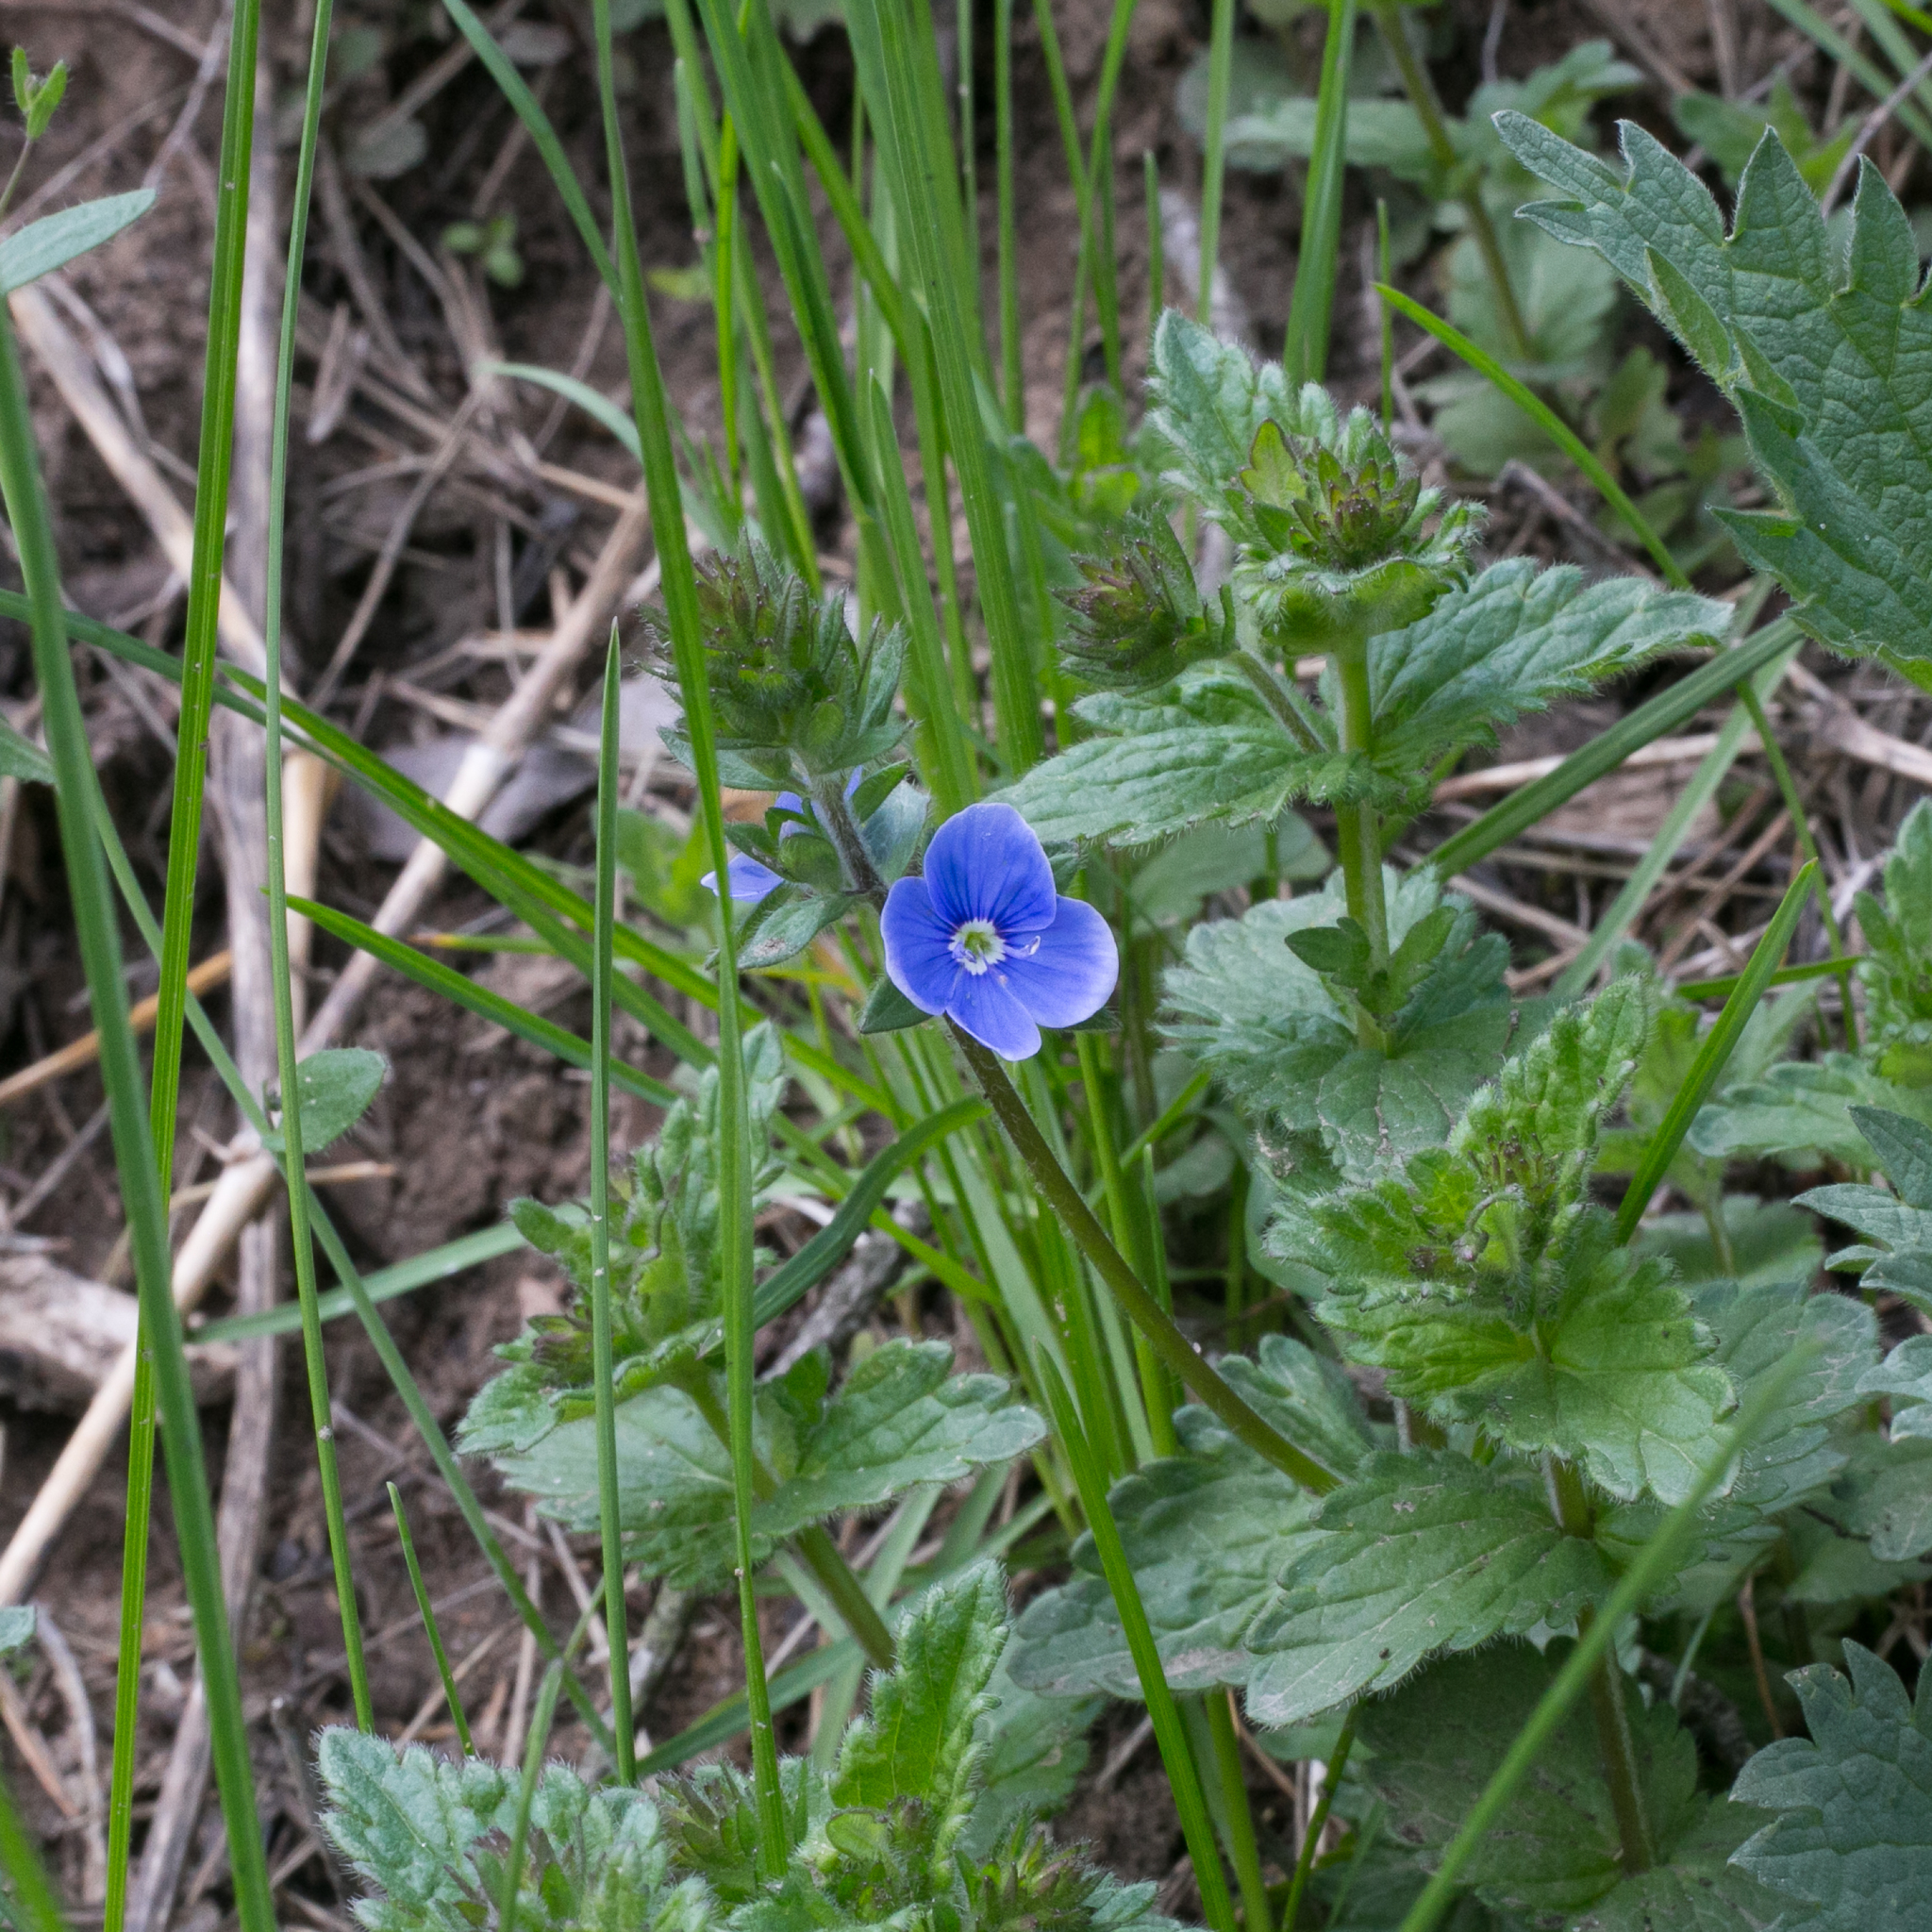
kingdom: Plantae
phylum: Tracheophyta
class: Magnoliopsida
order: Lamiales
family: Plantaginaceae
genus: Veronica
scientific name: Veronica chamaedrys
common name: Germander speedwell
